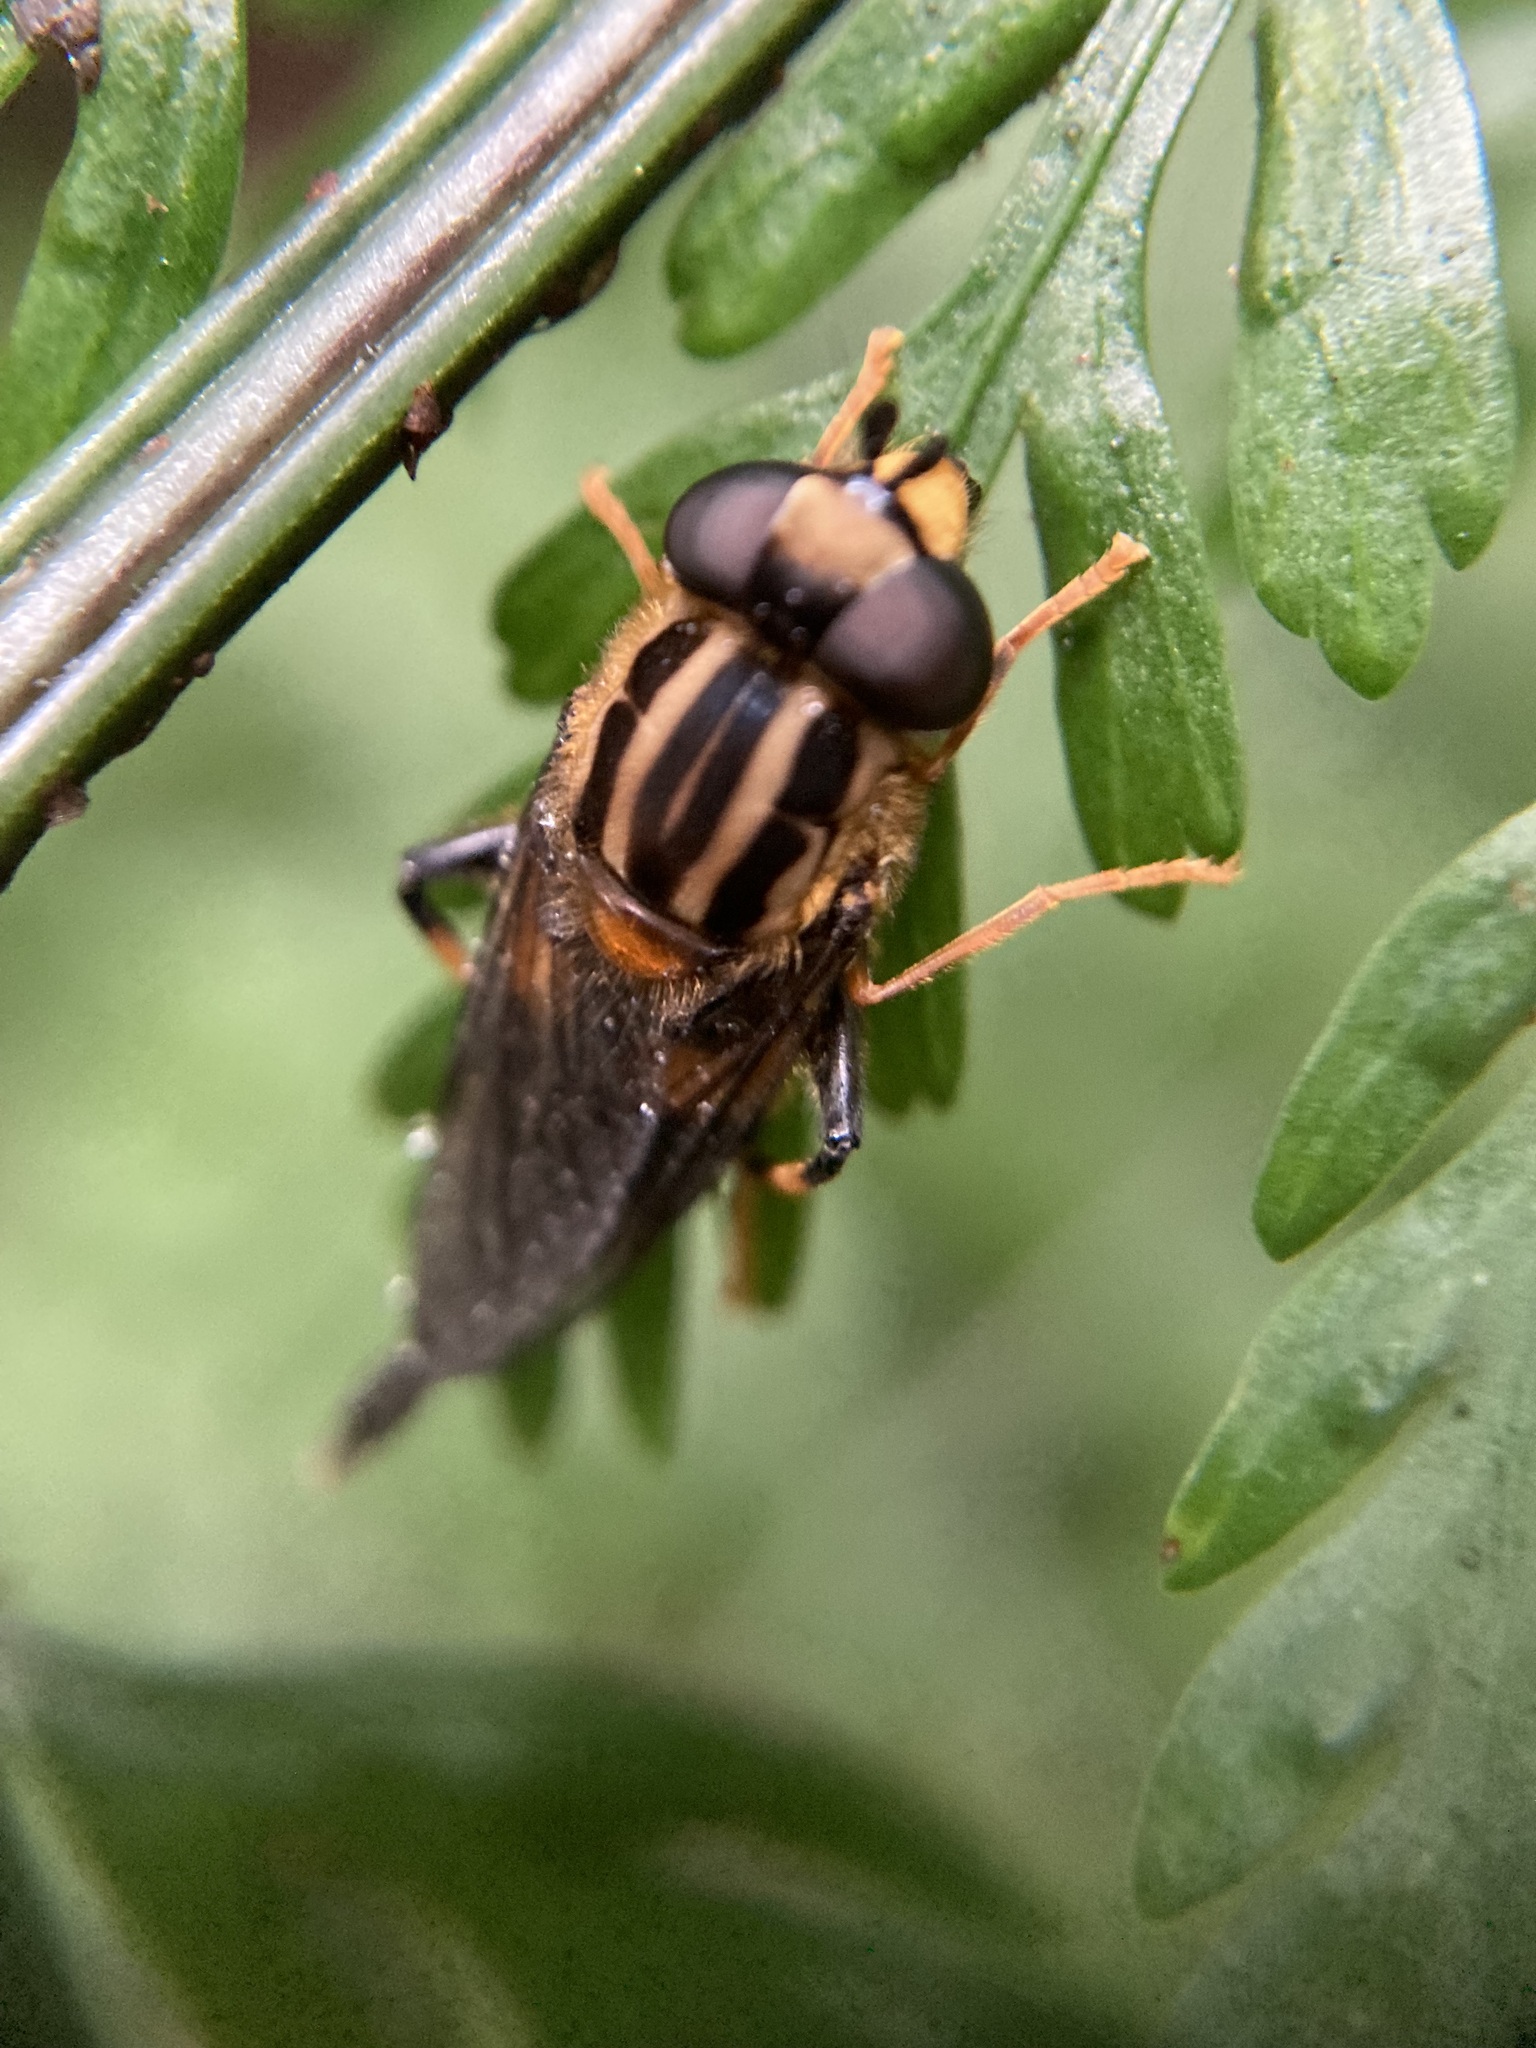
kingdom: Animalia
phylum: Arthropoda
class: Insecta
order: Diptera
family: Syrphidae
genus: Helophilus
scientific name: Helophilus antipodus
